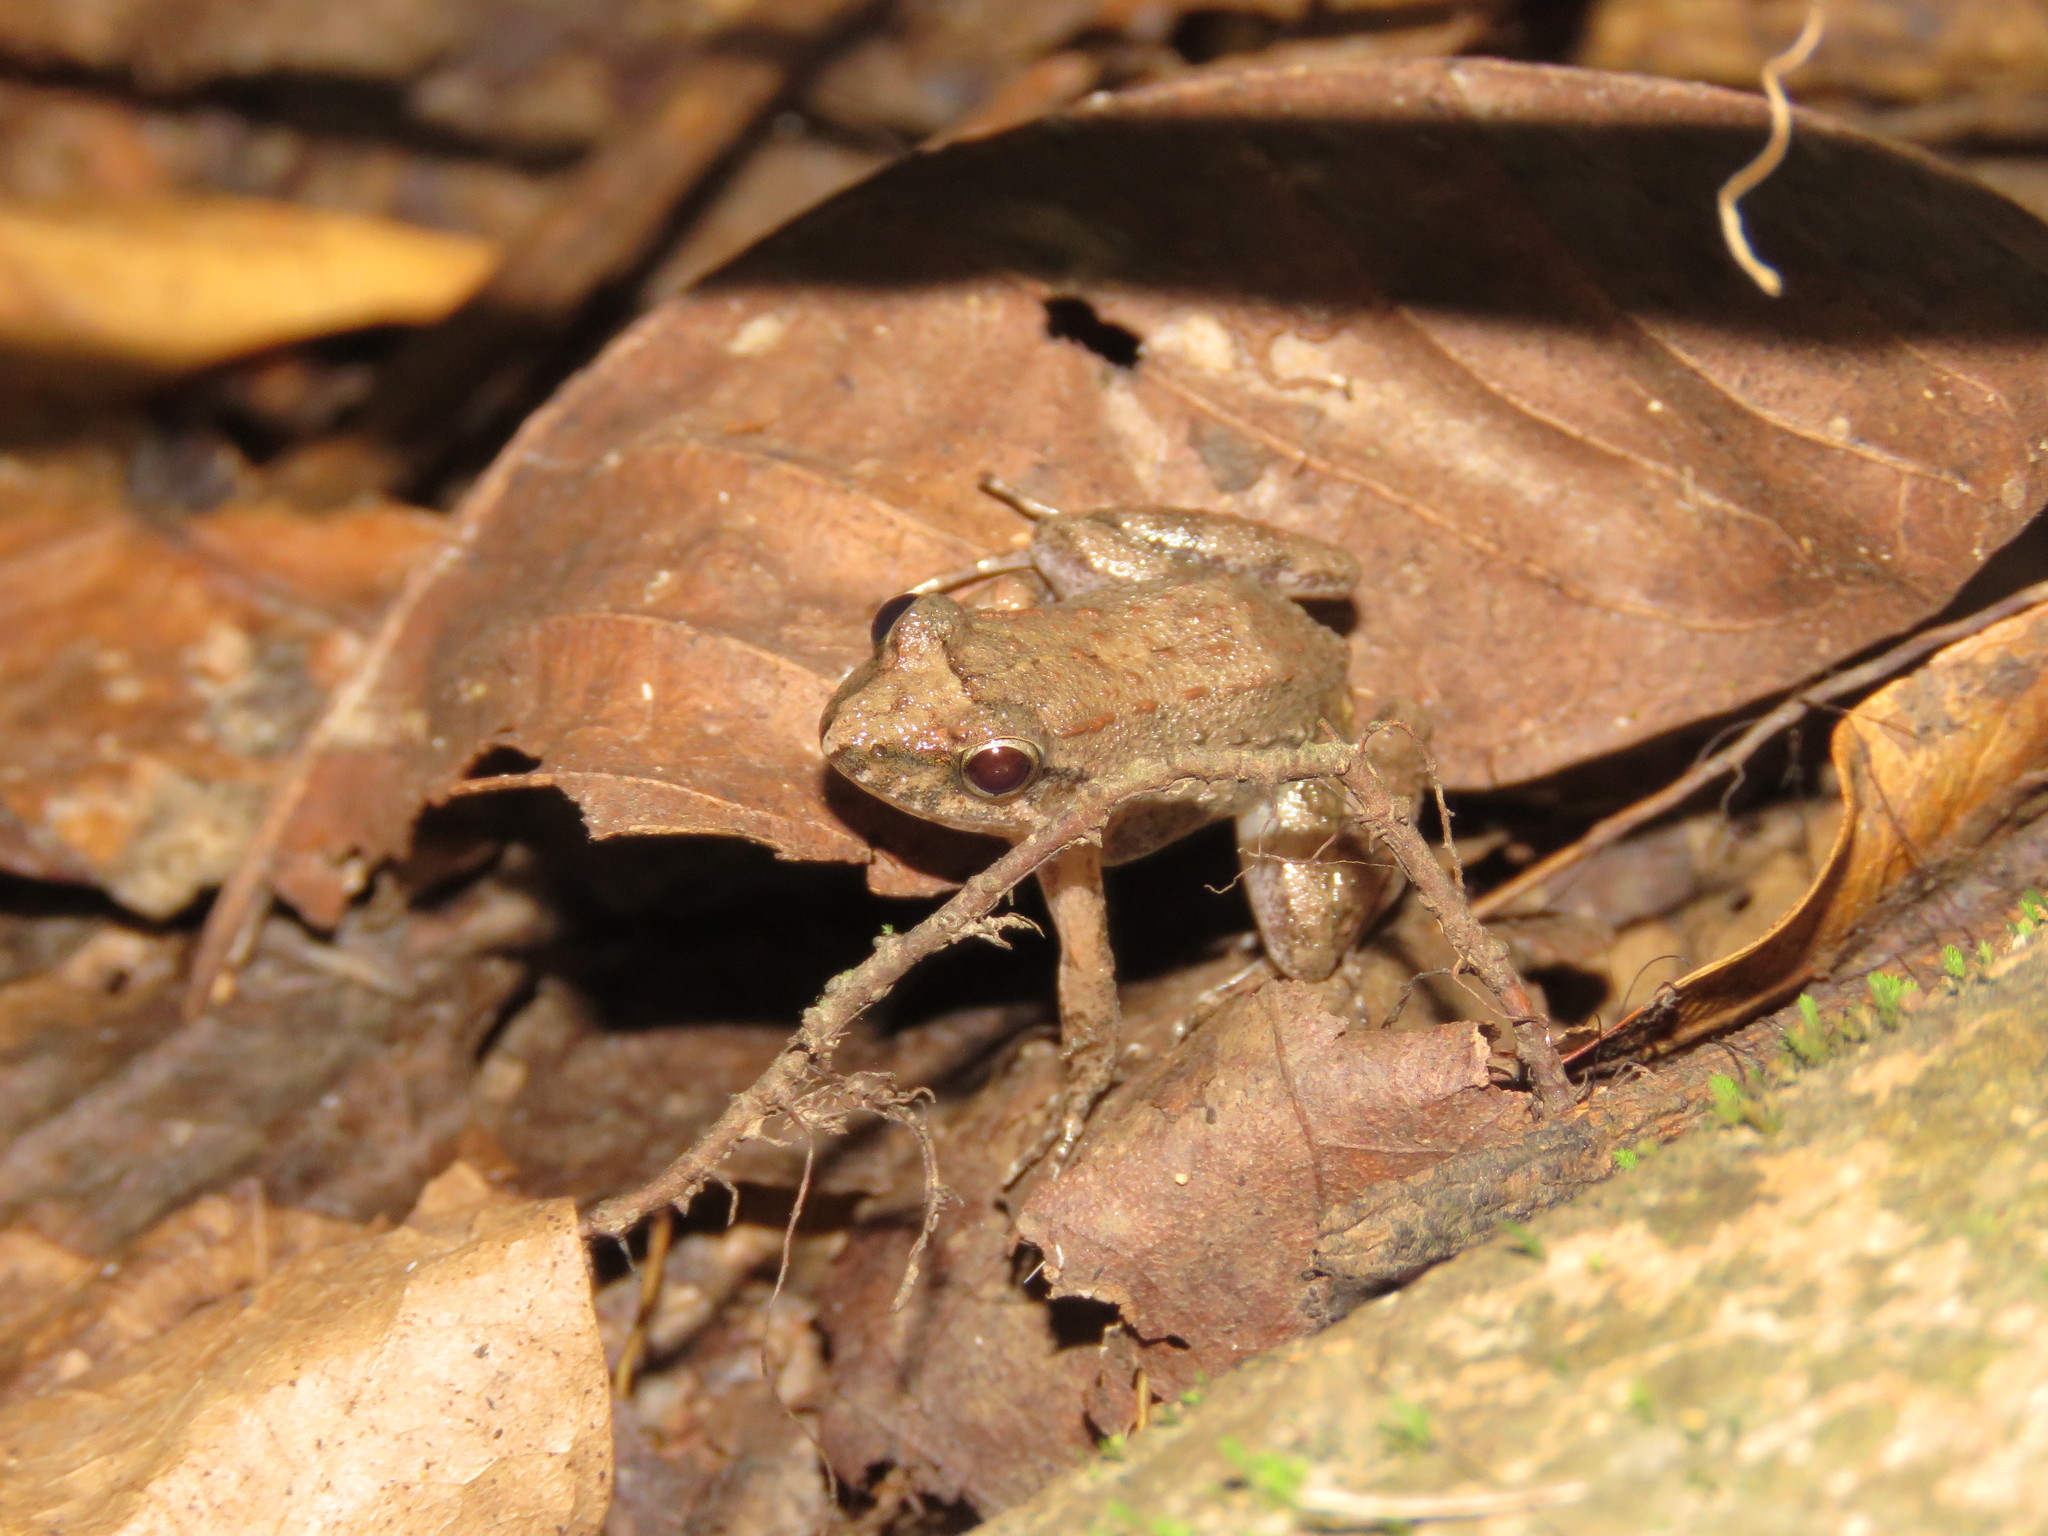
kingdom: Animalia
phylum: Chordata
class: Amphibia
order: Anura
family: Leptodactylidae
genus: Leptodactylus
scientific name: Leptodactylus petersii
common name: Peters' thin-toed frog
